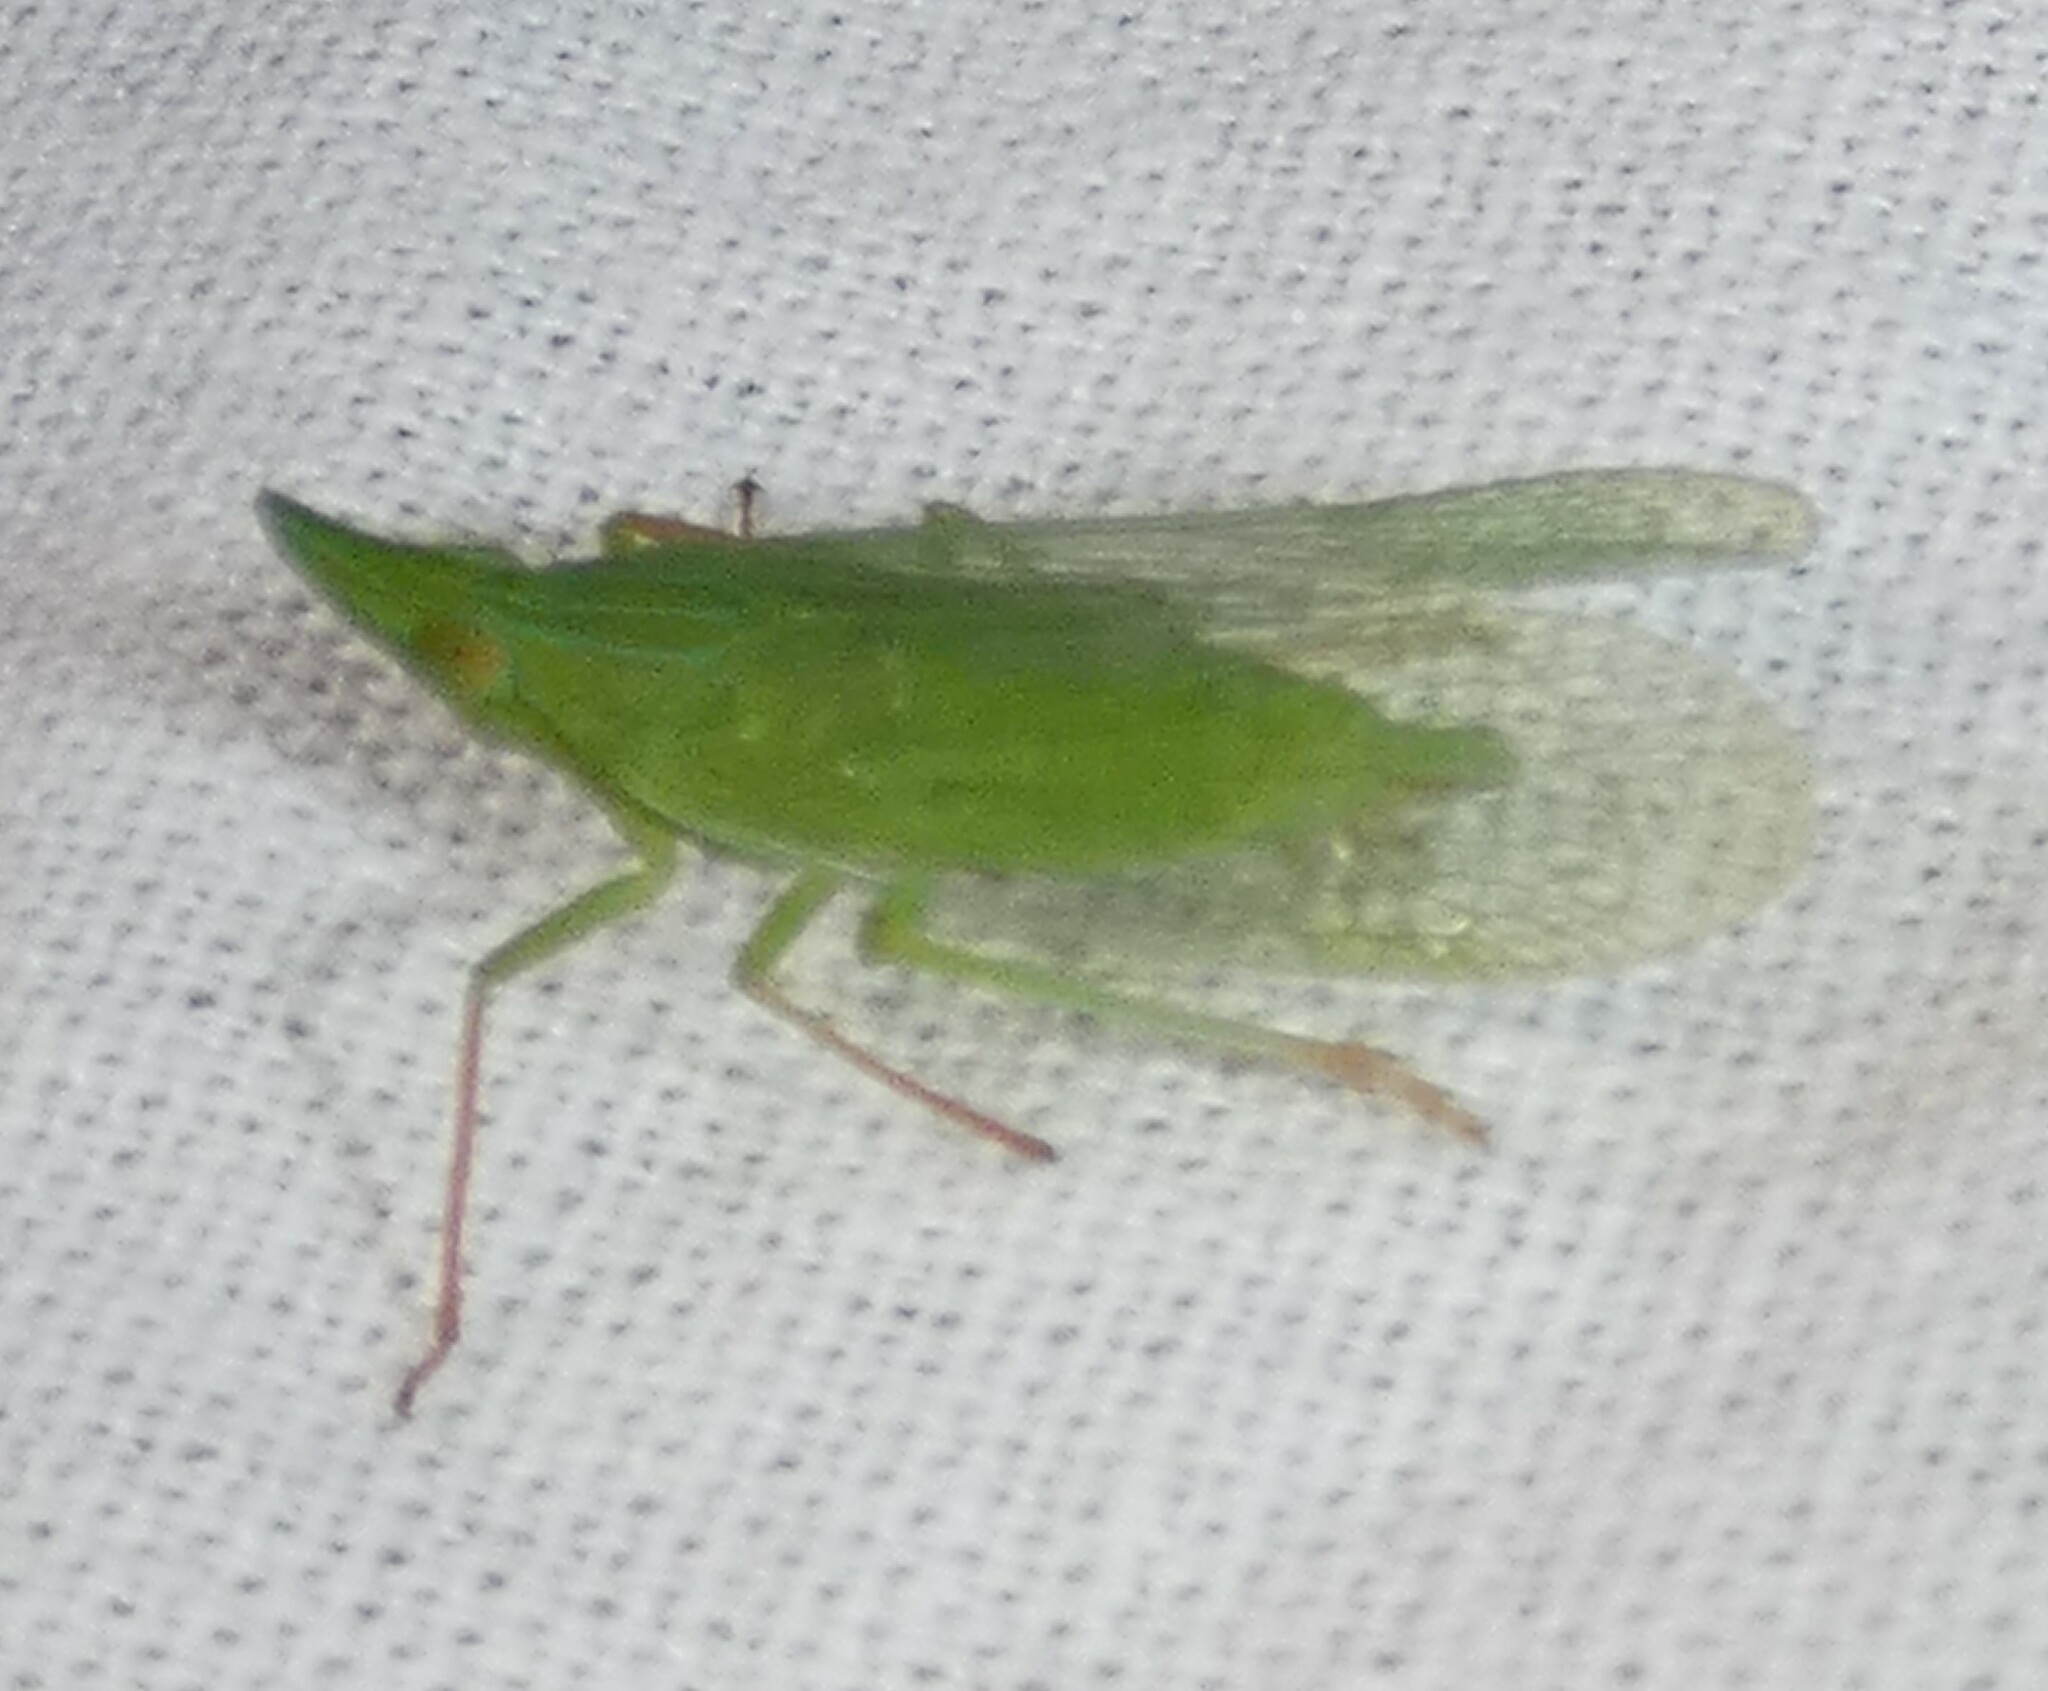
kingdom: Animalia
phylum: Arthropoda
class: Insecta
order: Hemiptera
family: Dictyopharidae
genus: Rhynchomitra
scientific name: Rhynchomitra microrhina
